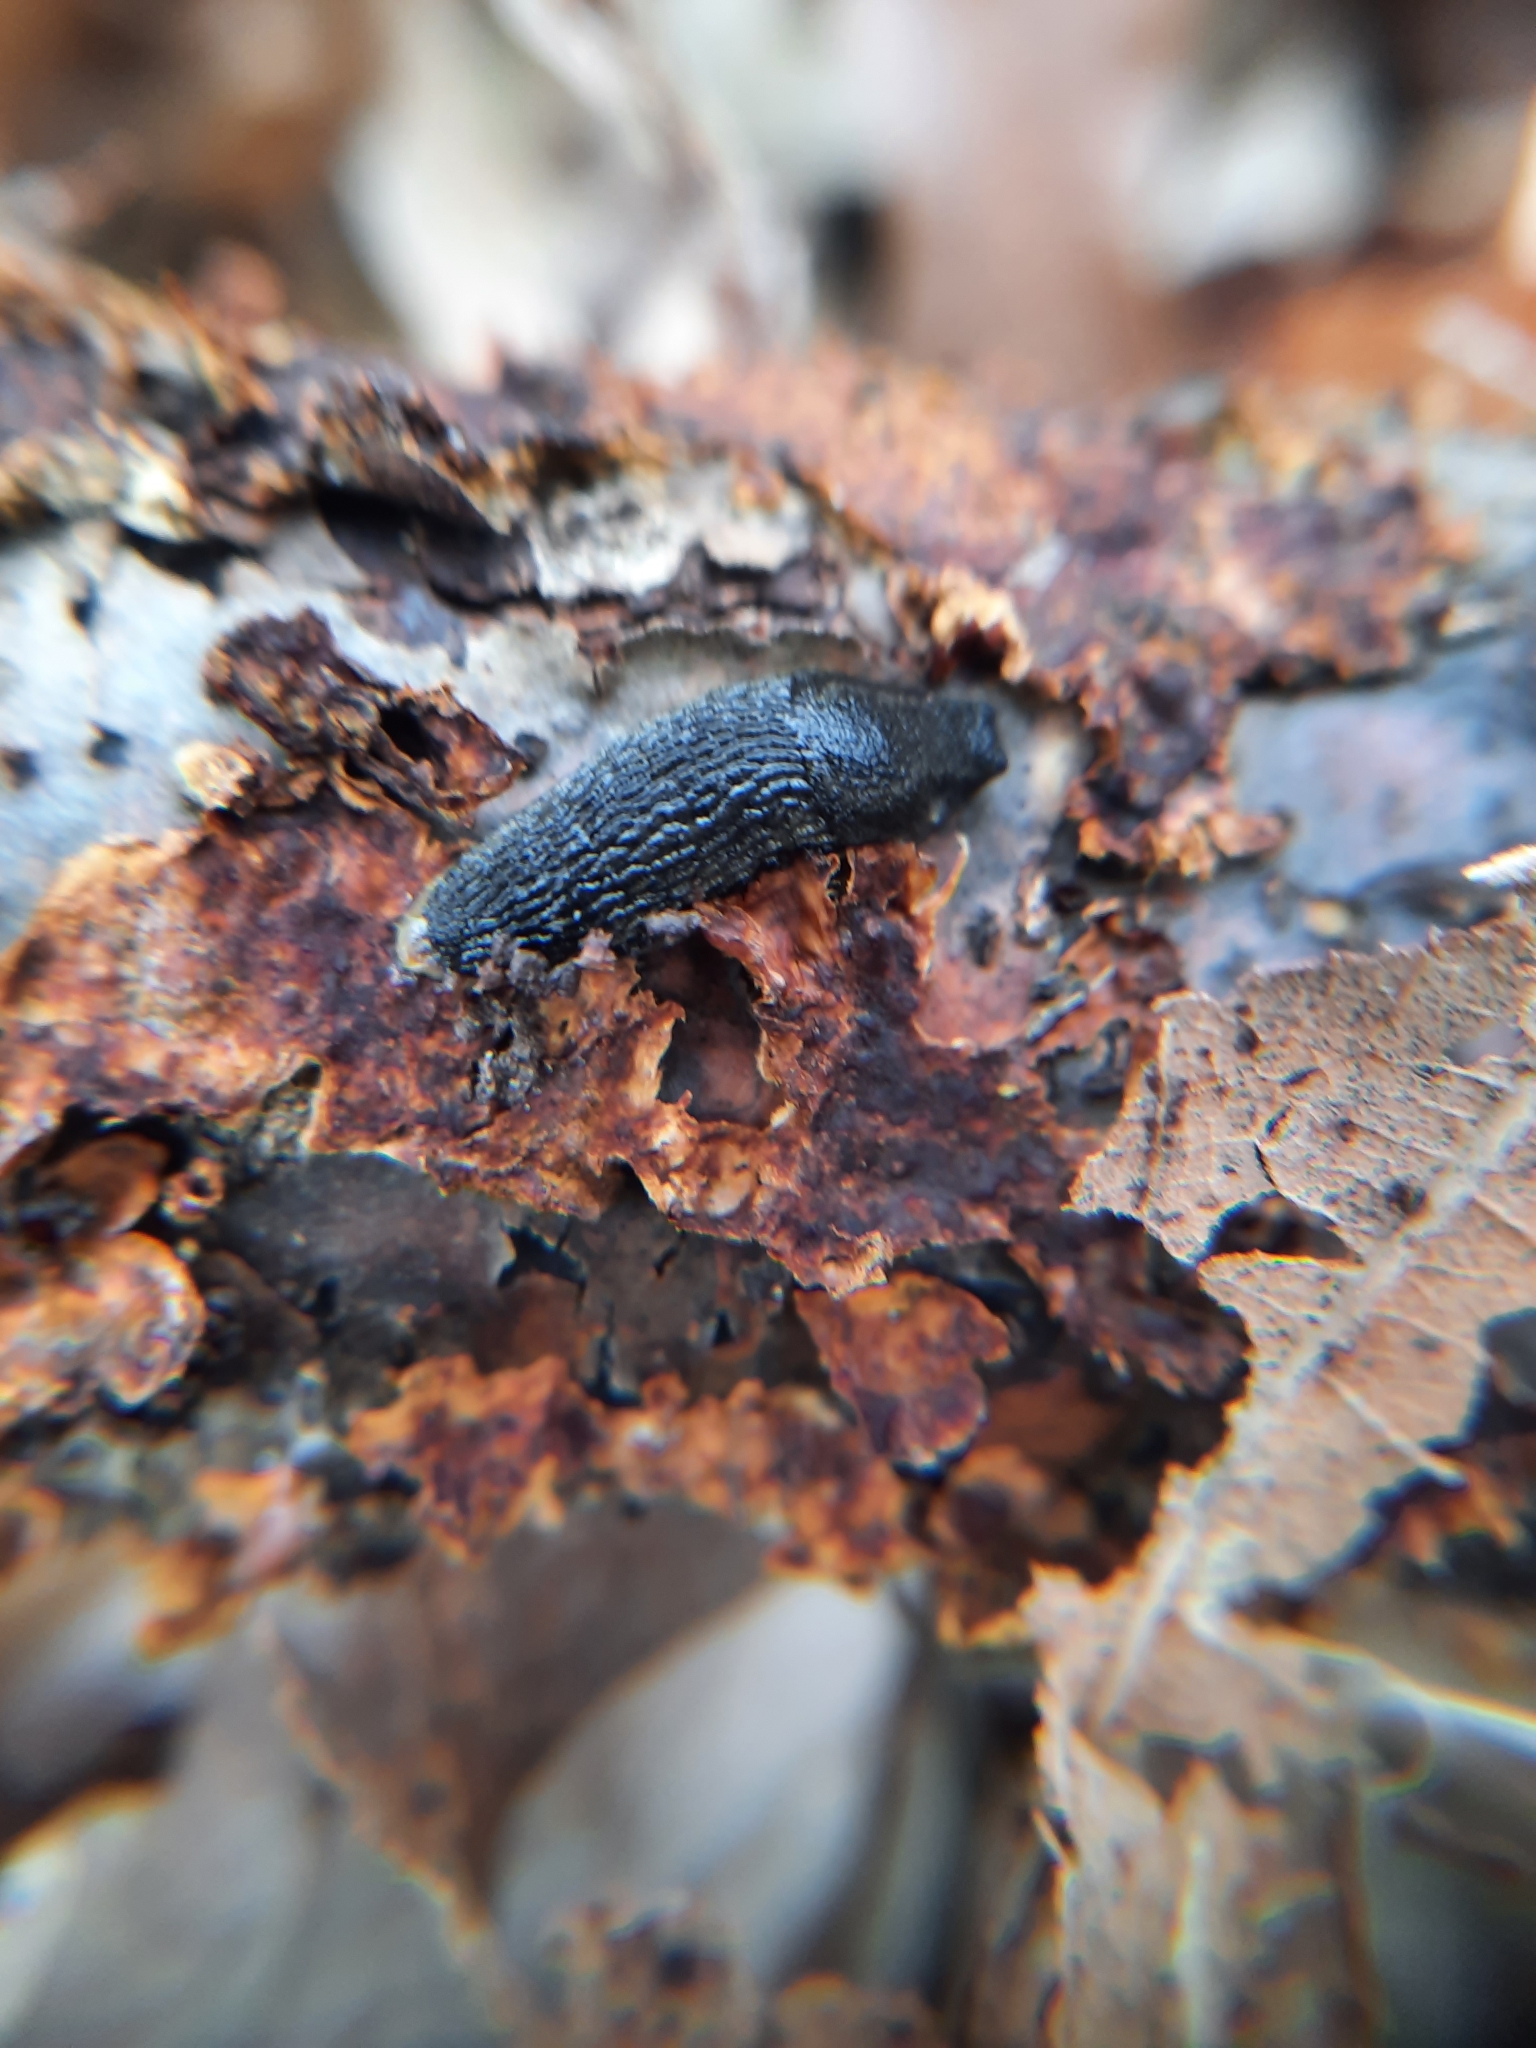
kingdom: Animalia
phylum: Mollusca
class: Gastropoda
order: Stylommatophora
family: Arionidae
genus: Arion
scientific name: Arion hortensis
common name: Garden arion
